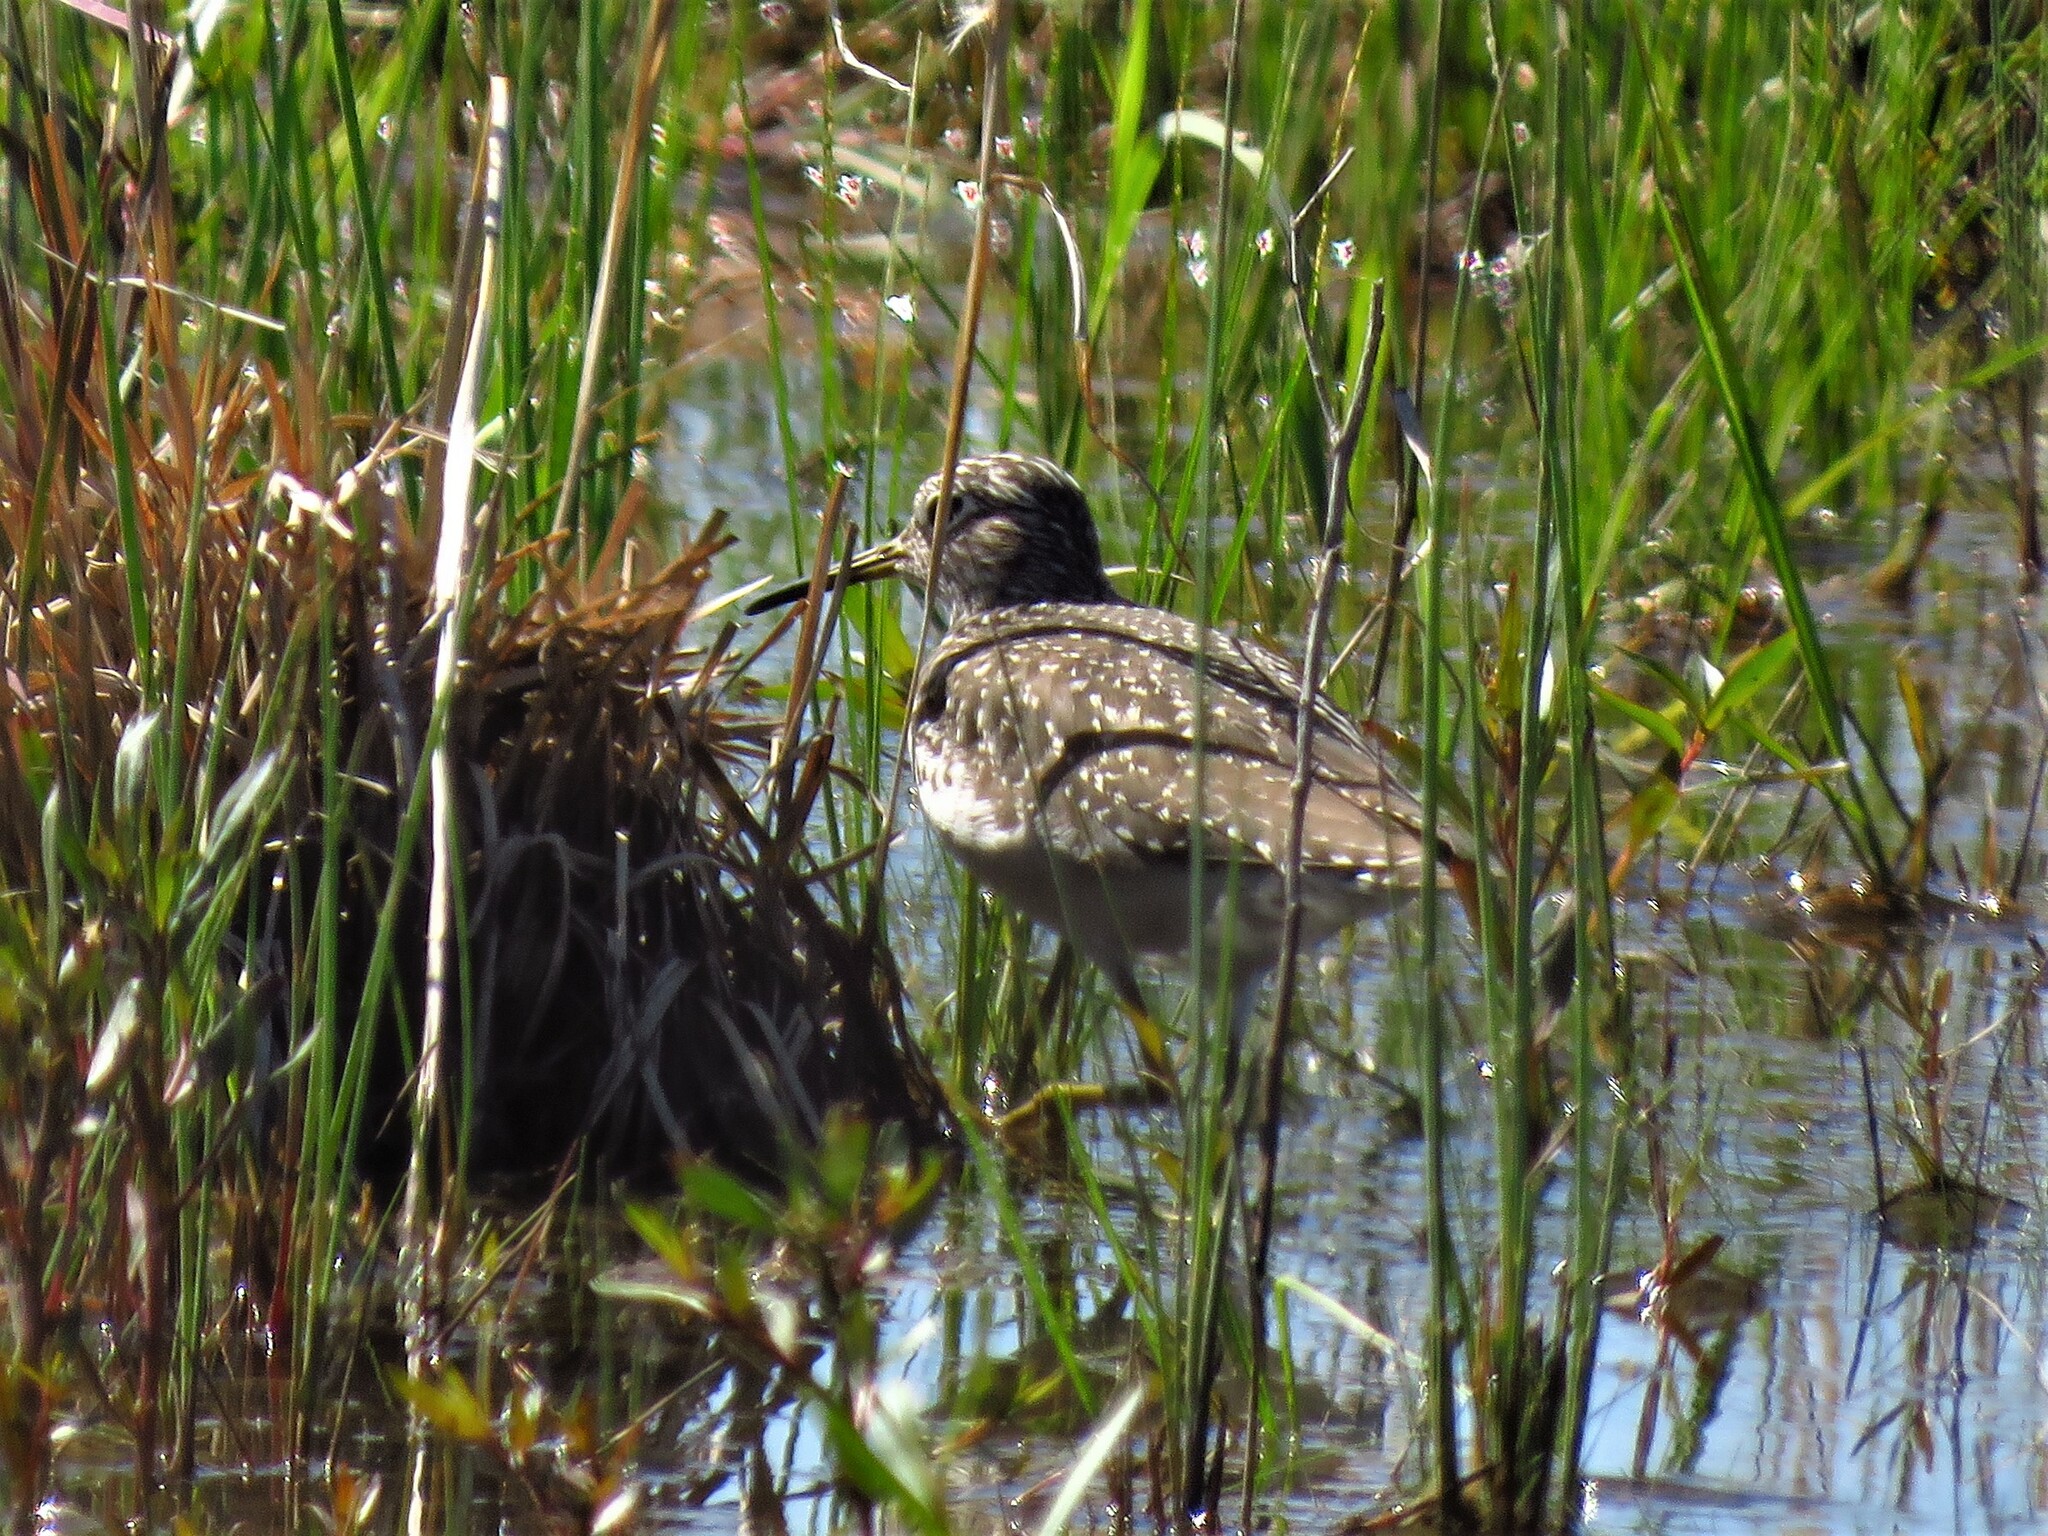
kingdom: Animalia
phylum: Chordata
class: Aves
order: Charadriiformes
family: Scolopacidae
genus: Tringa
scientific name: Tringa solitaria
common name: Solitary sandpiper
